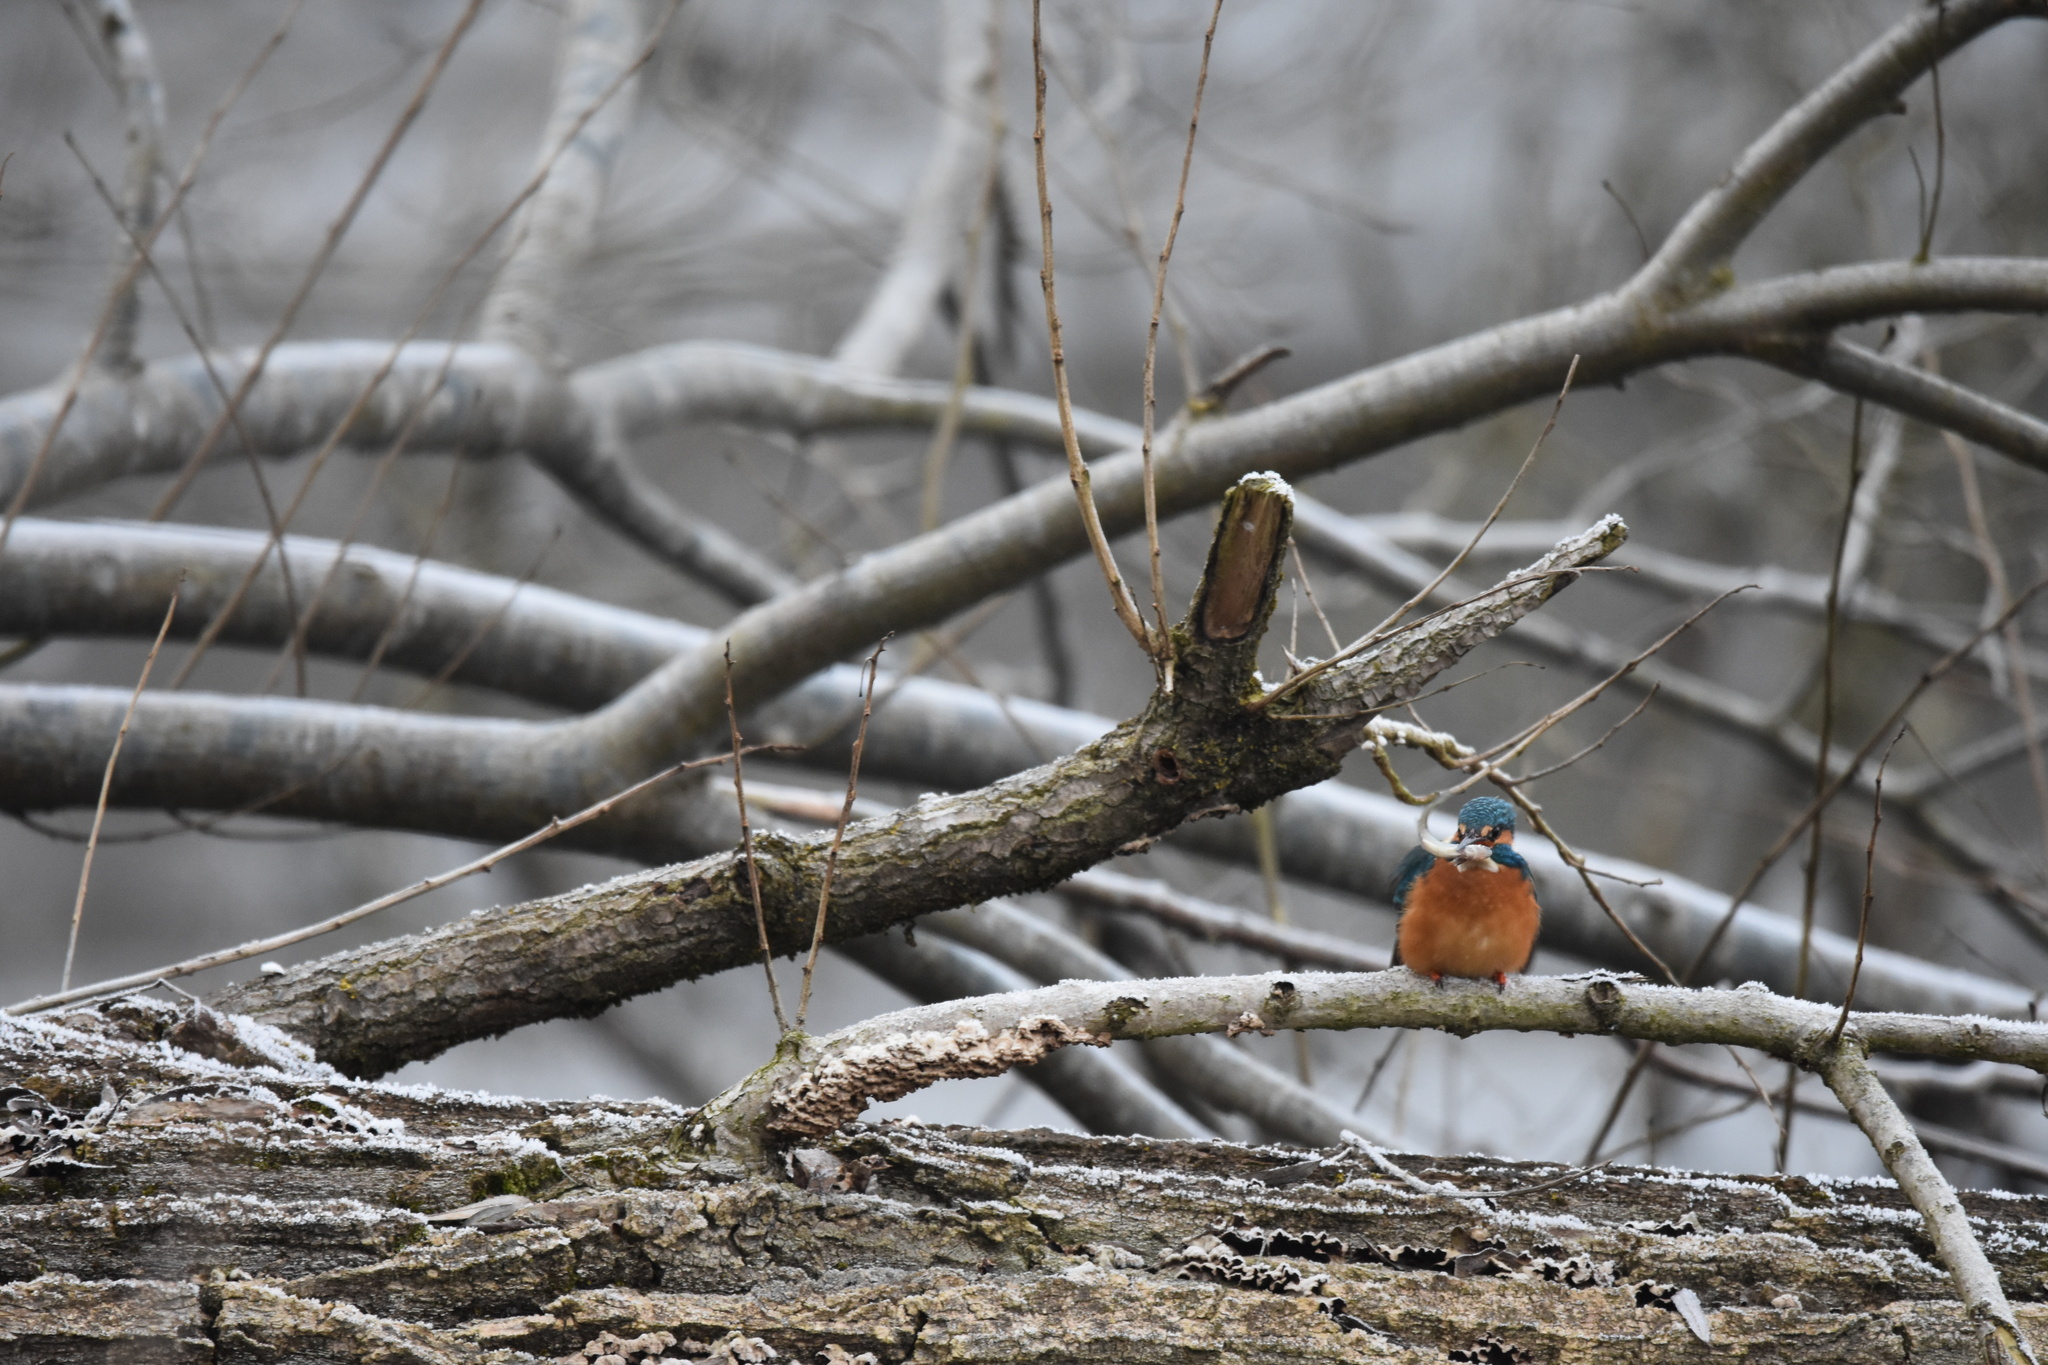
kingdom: Animalia
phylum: Chordata
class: Aves
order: Coraciiformes
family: Alcedinidae
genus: Alcedo
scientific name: Alcedo atthis
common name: Common kingfisher
